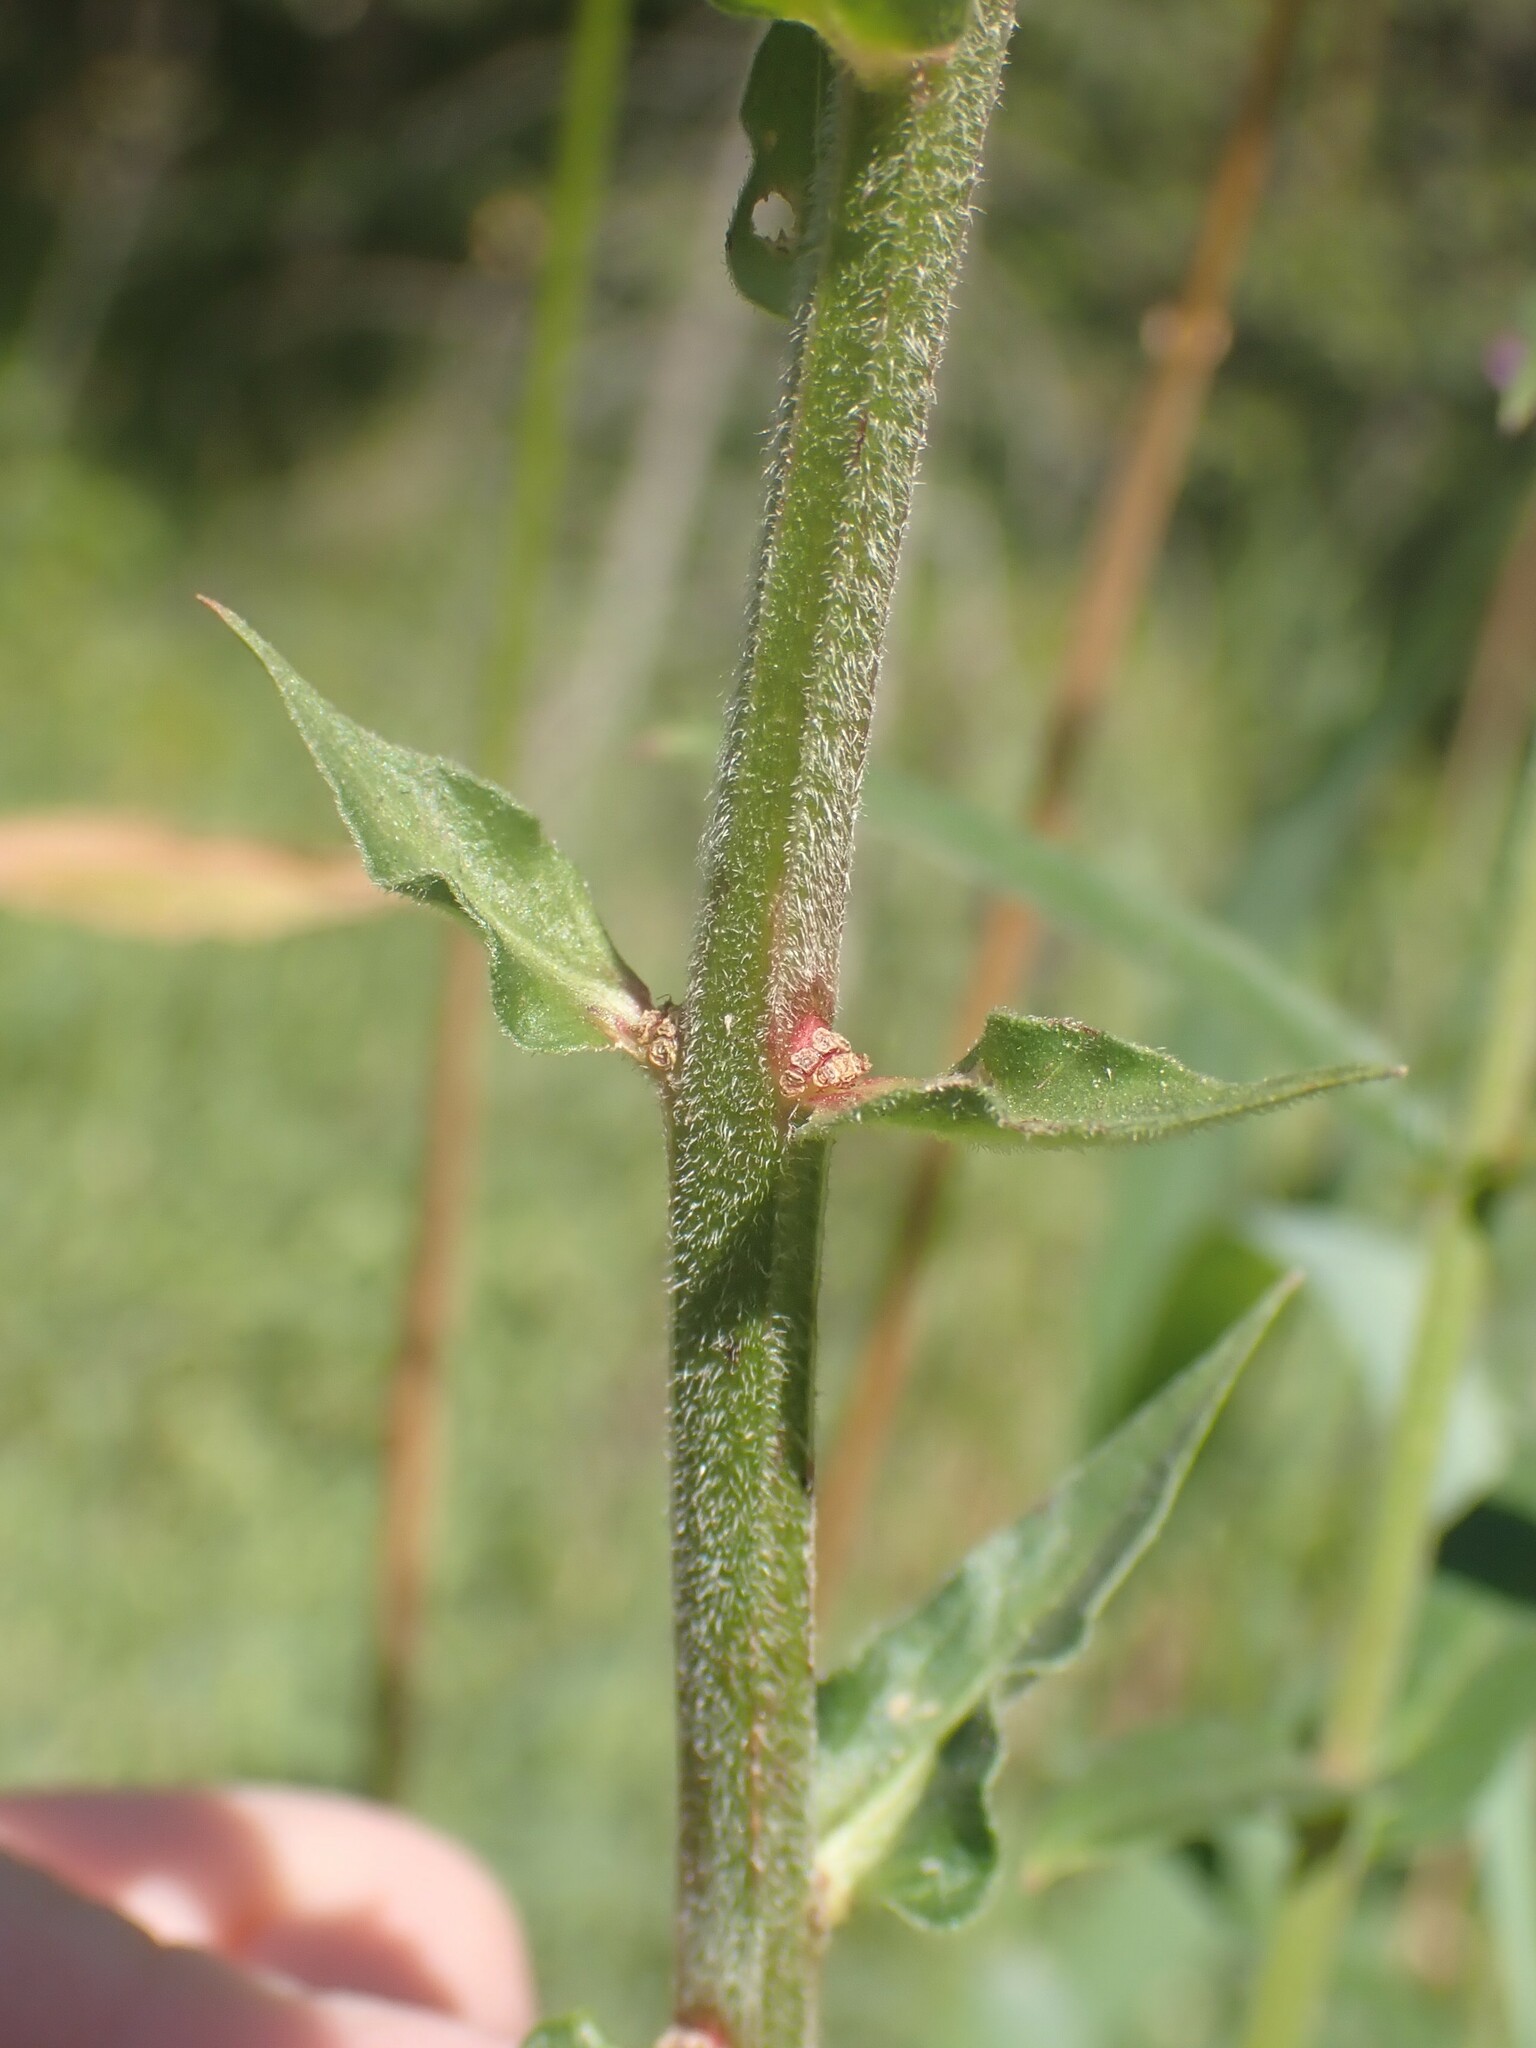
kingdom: Plantae
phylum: Tracheophyta
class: Magnoliopsida
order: Myrtales
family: Lythraceae
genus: Lythrum
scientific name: Lythrum salicaria
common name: Purple loosestrife
